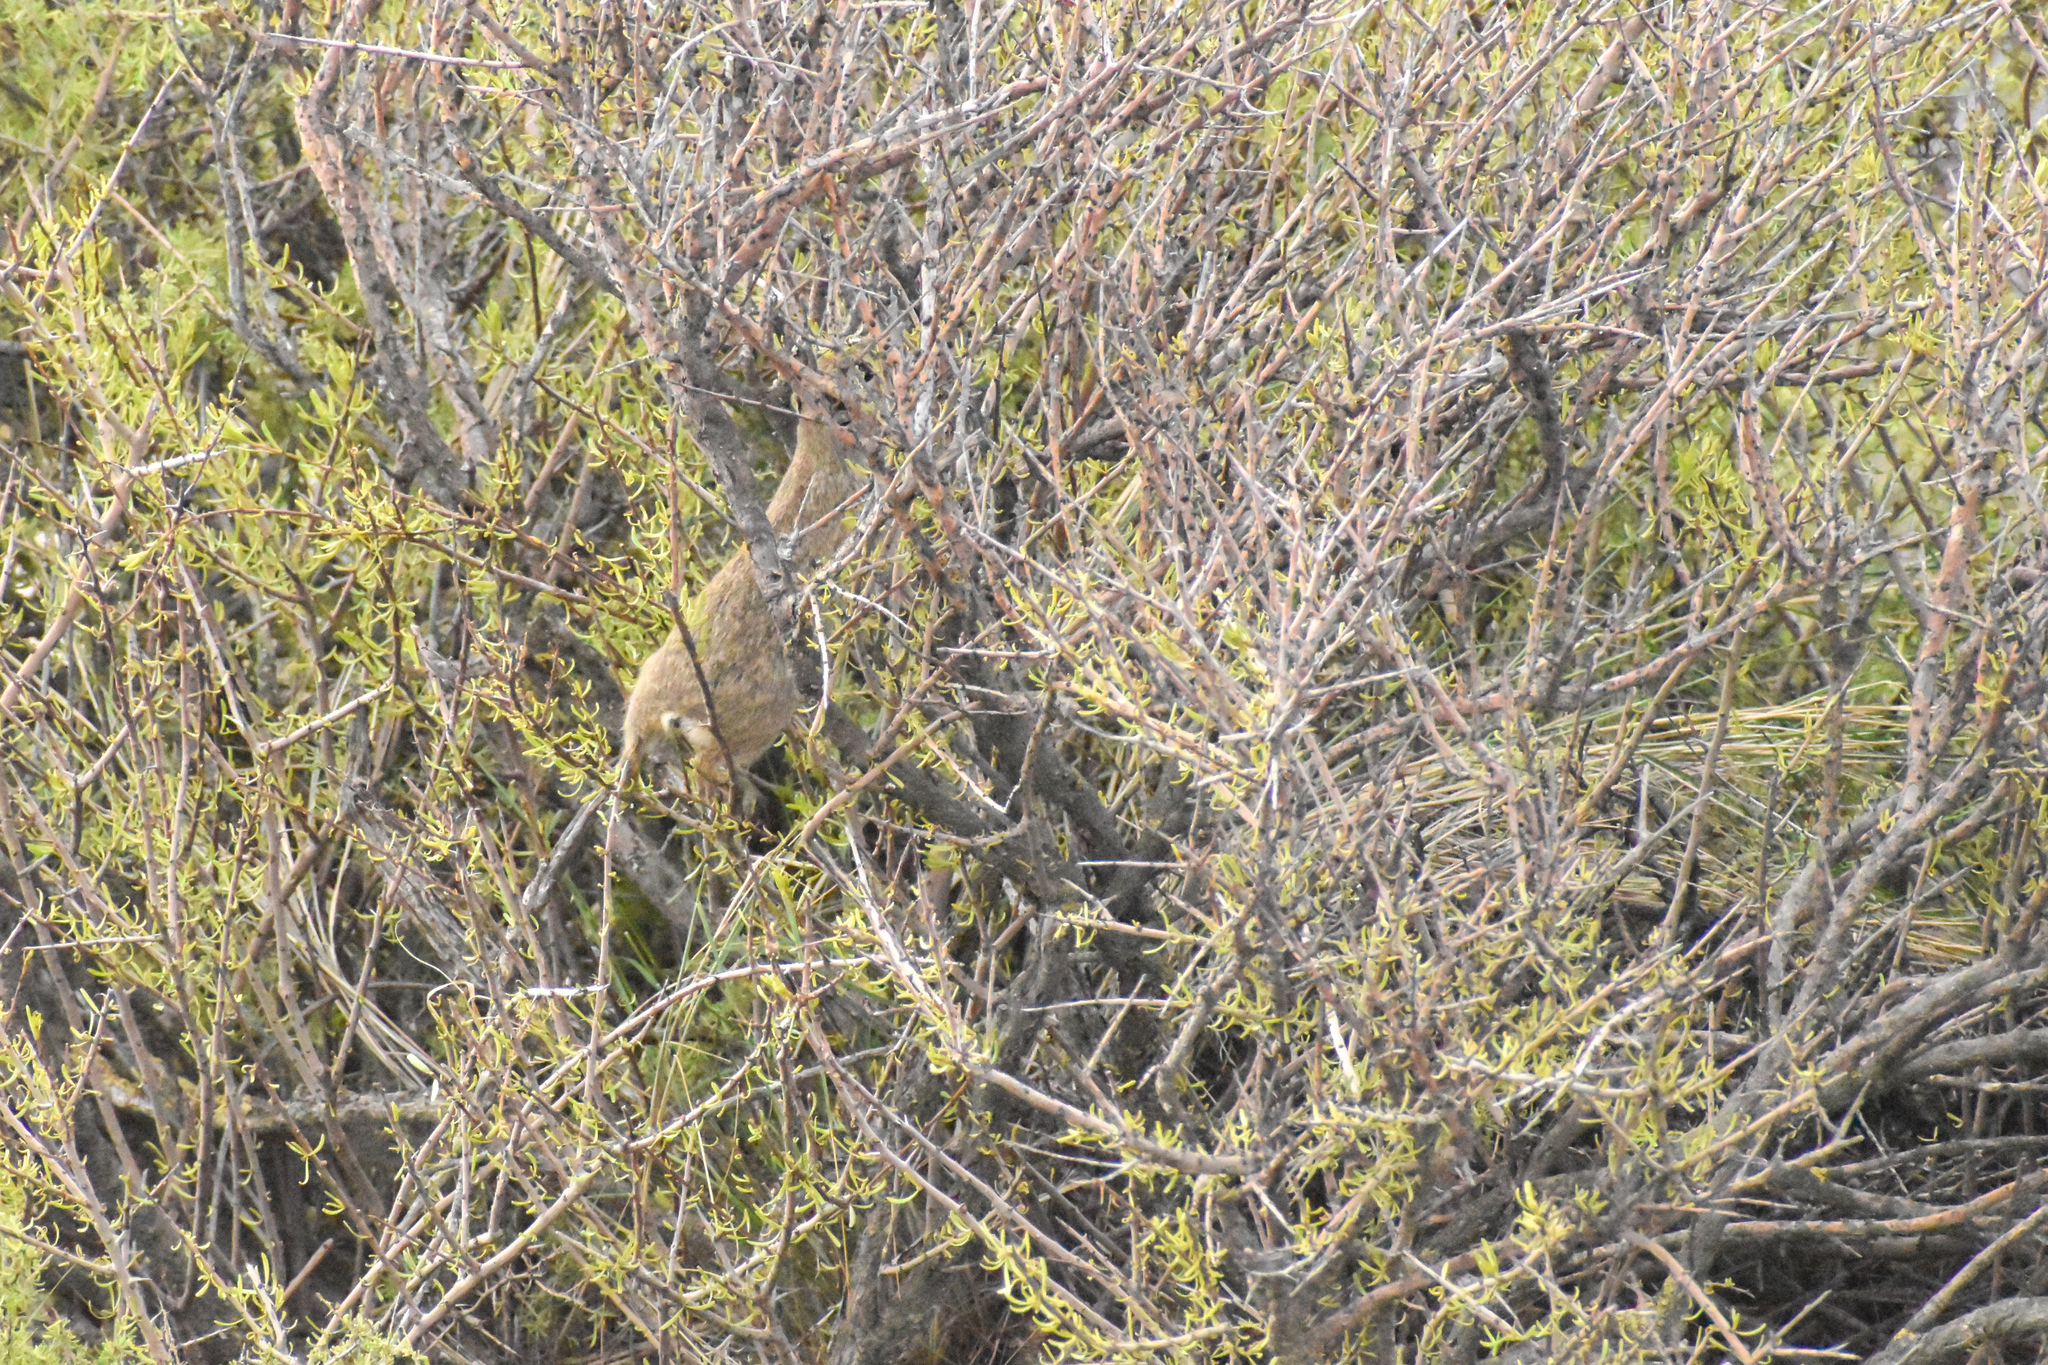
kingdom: Animalia
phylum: Chordata
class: Mammalia
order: Rodentia
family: Caviidae
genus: Microcavia
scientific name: Microcavia australis
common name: Southern mountain cavy
